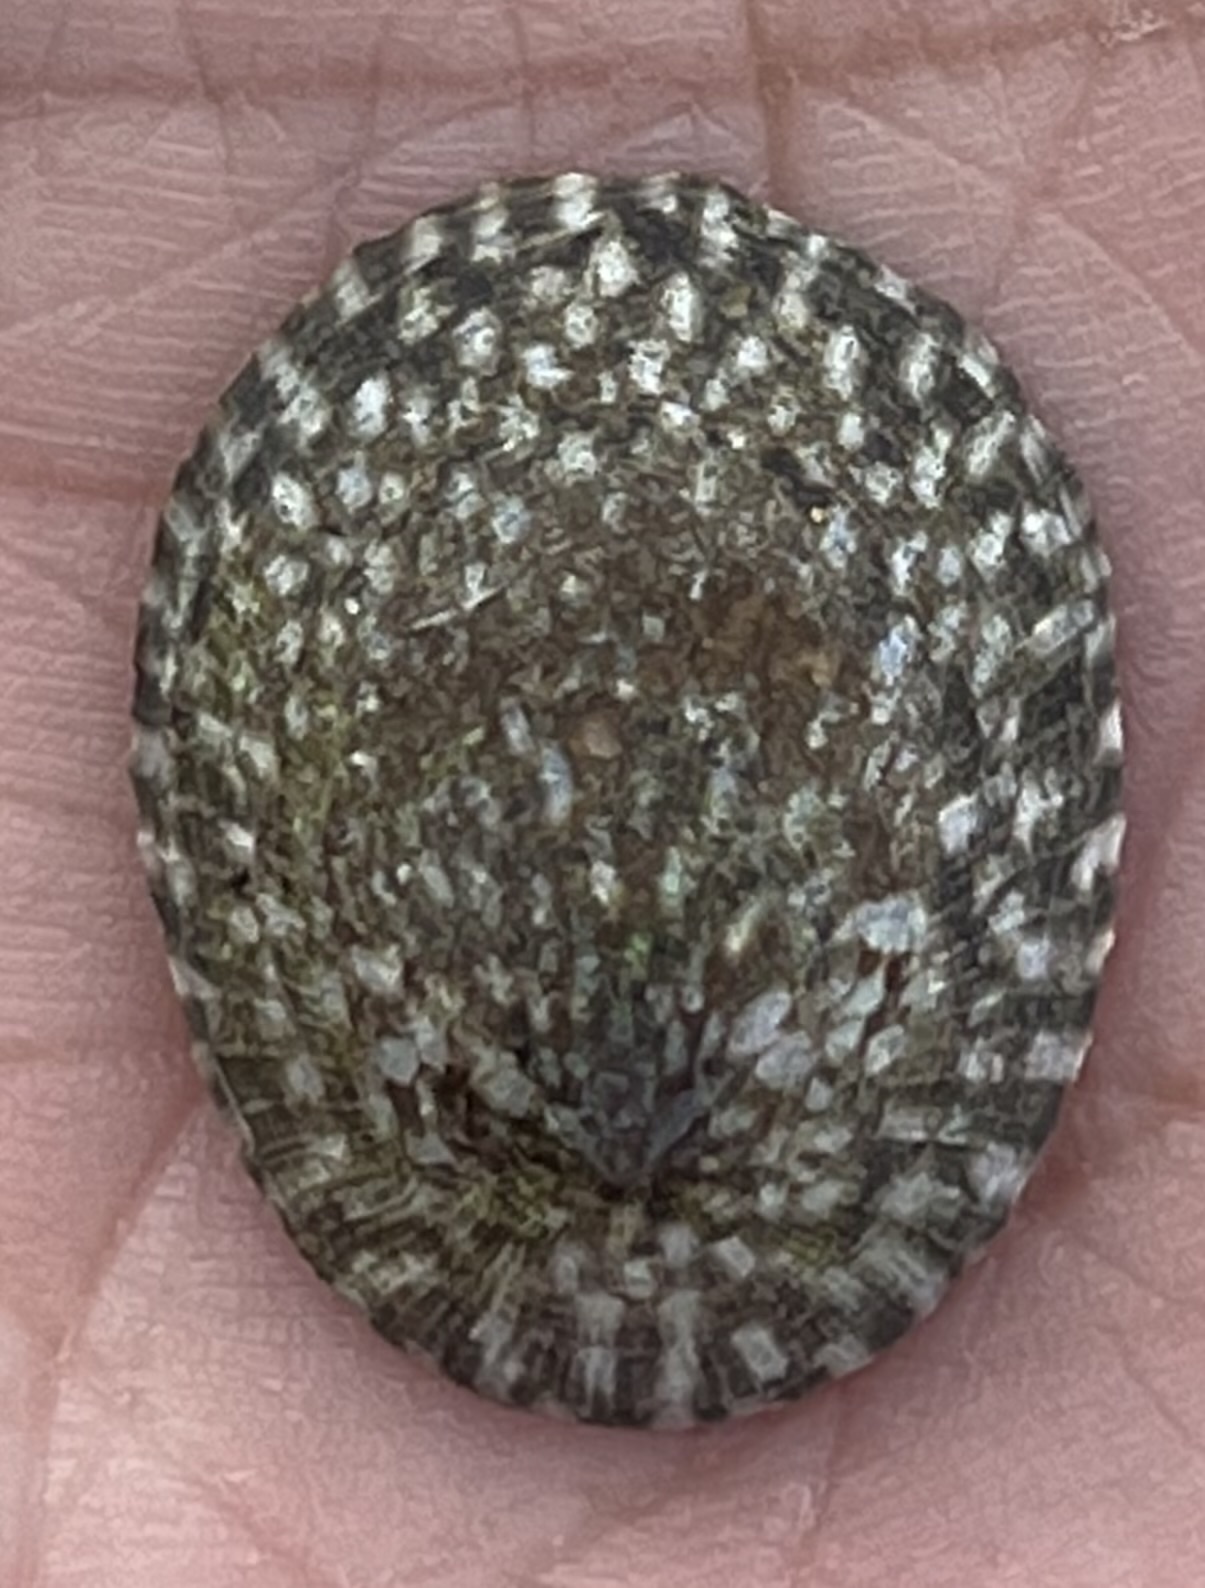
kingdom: Animalia
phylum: Mollusca
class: Gastropoda
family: Lottiidae
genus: Lottia
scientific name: Lottia persona
